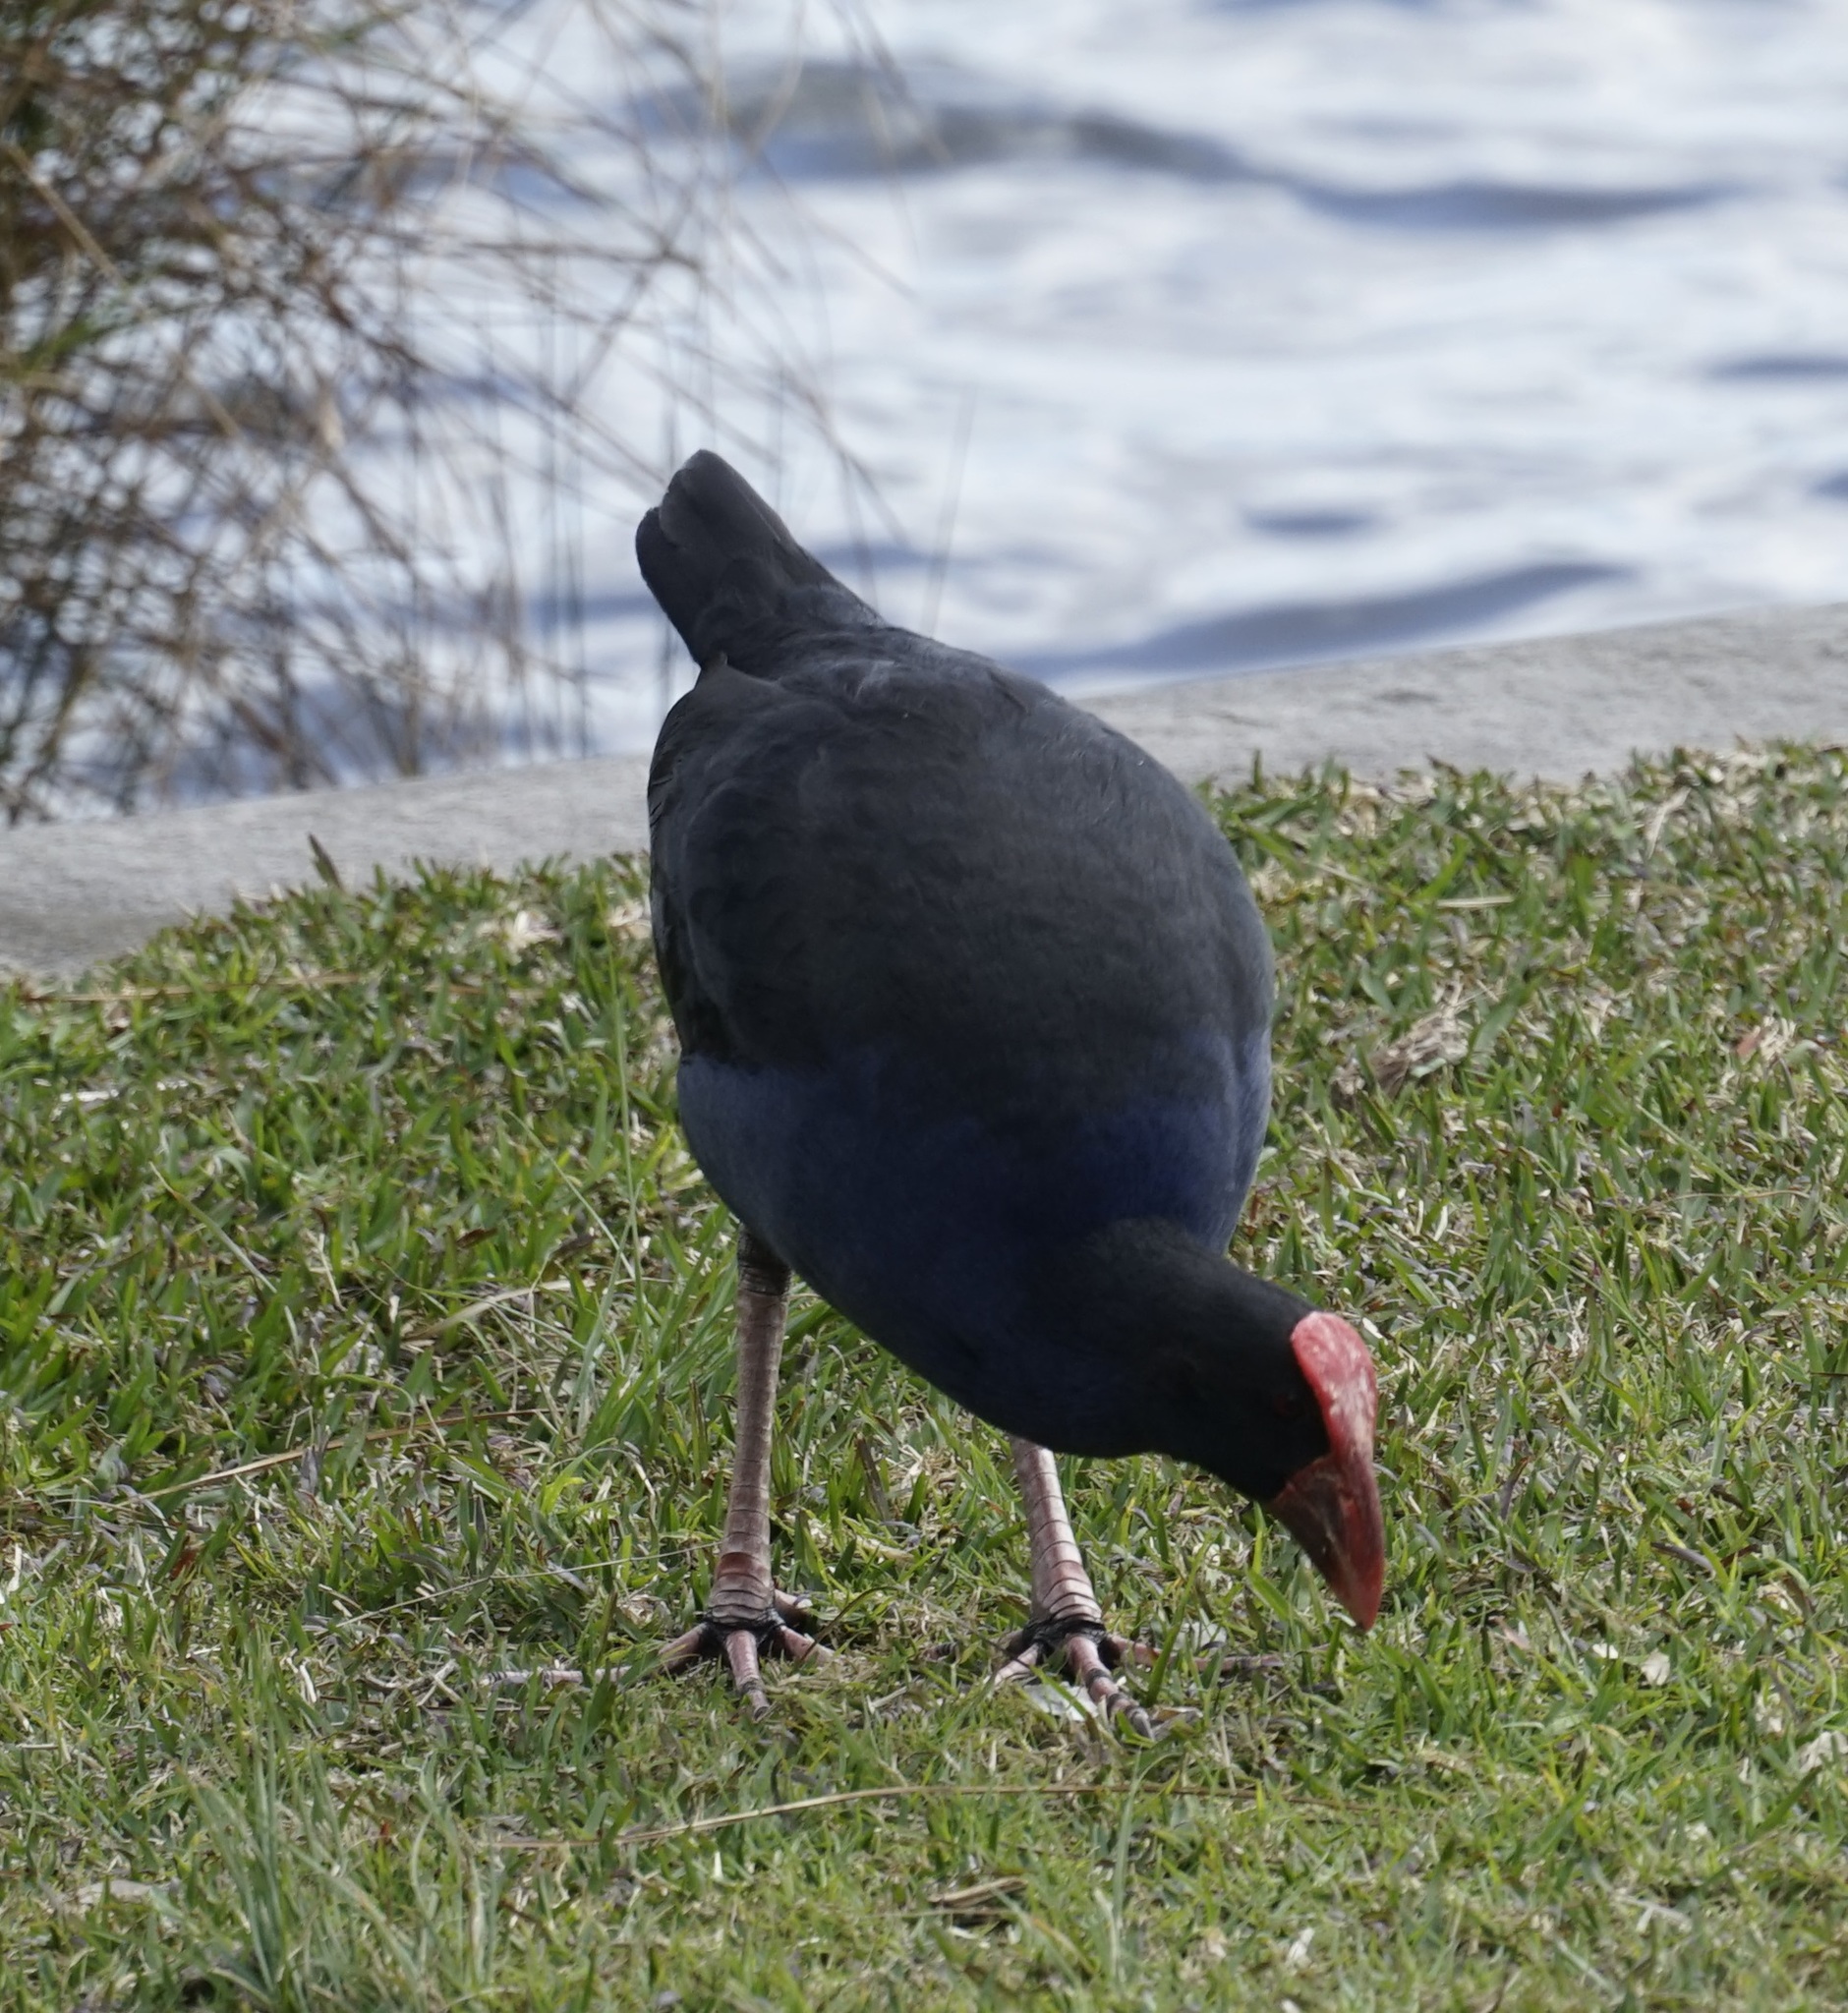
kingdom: Animalia
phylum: Chordata
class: Aves
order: Gruiformes
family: Rallidae
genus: Porphyrio
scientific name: Porphyrio melanotus
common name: Australasian swamphen
